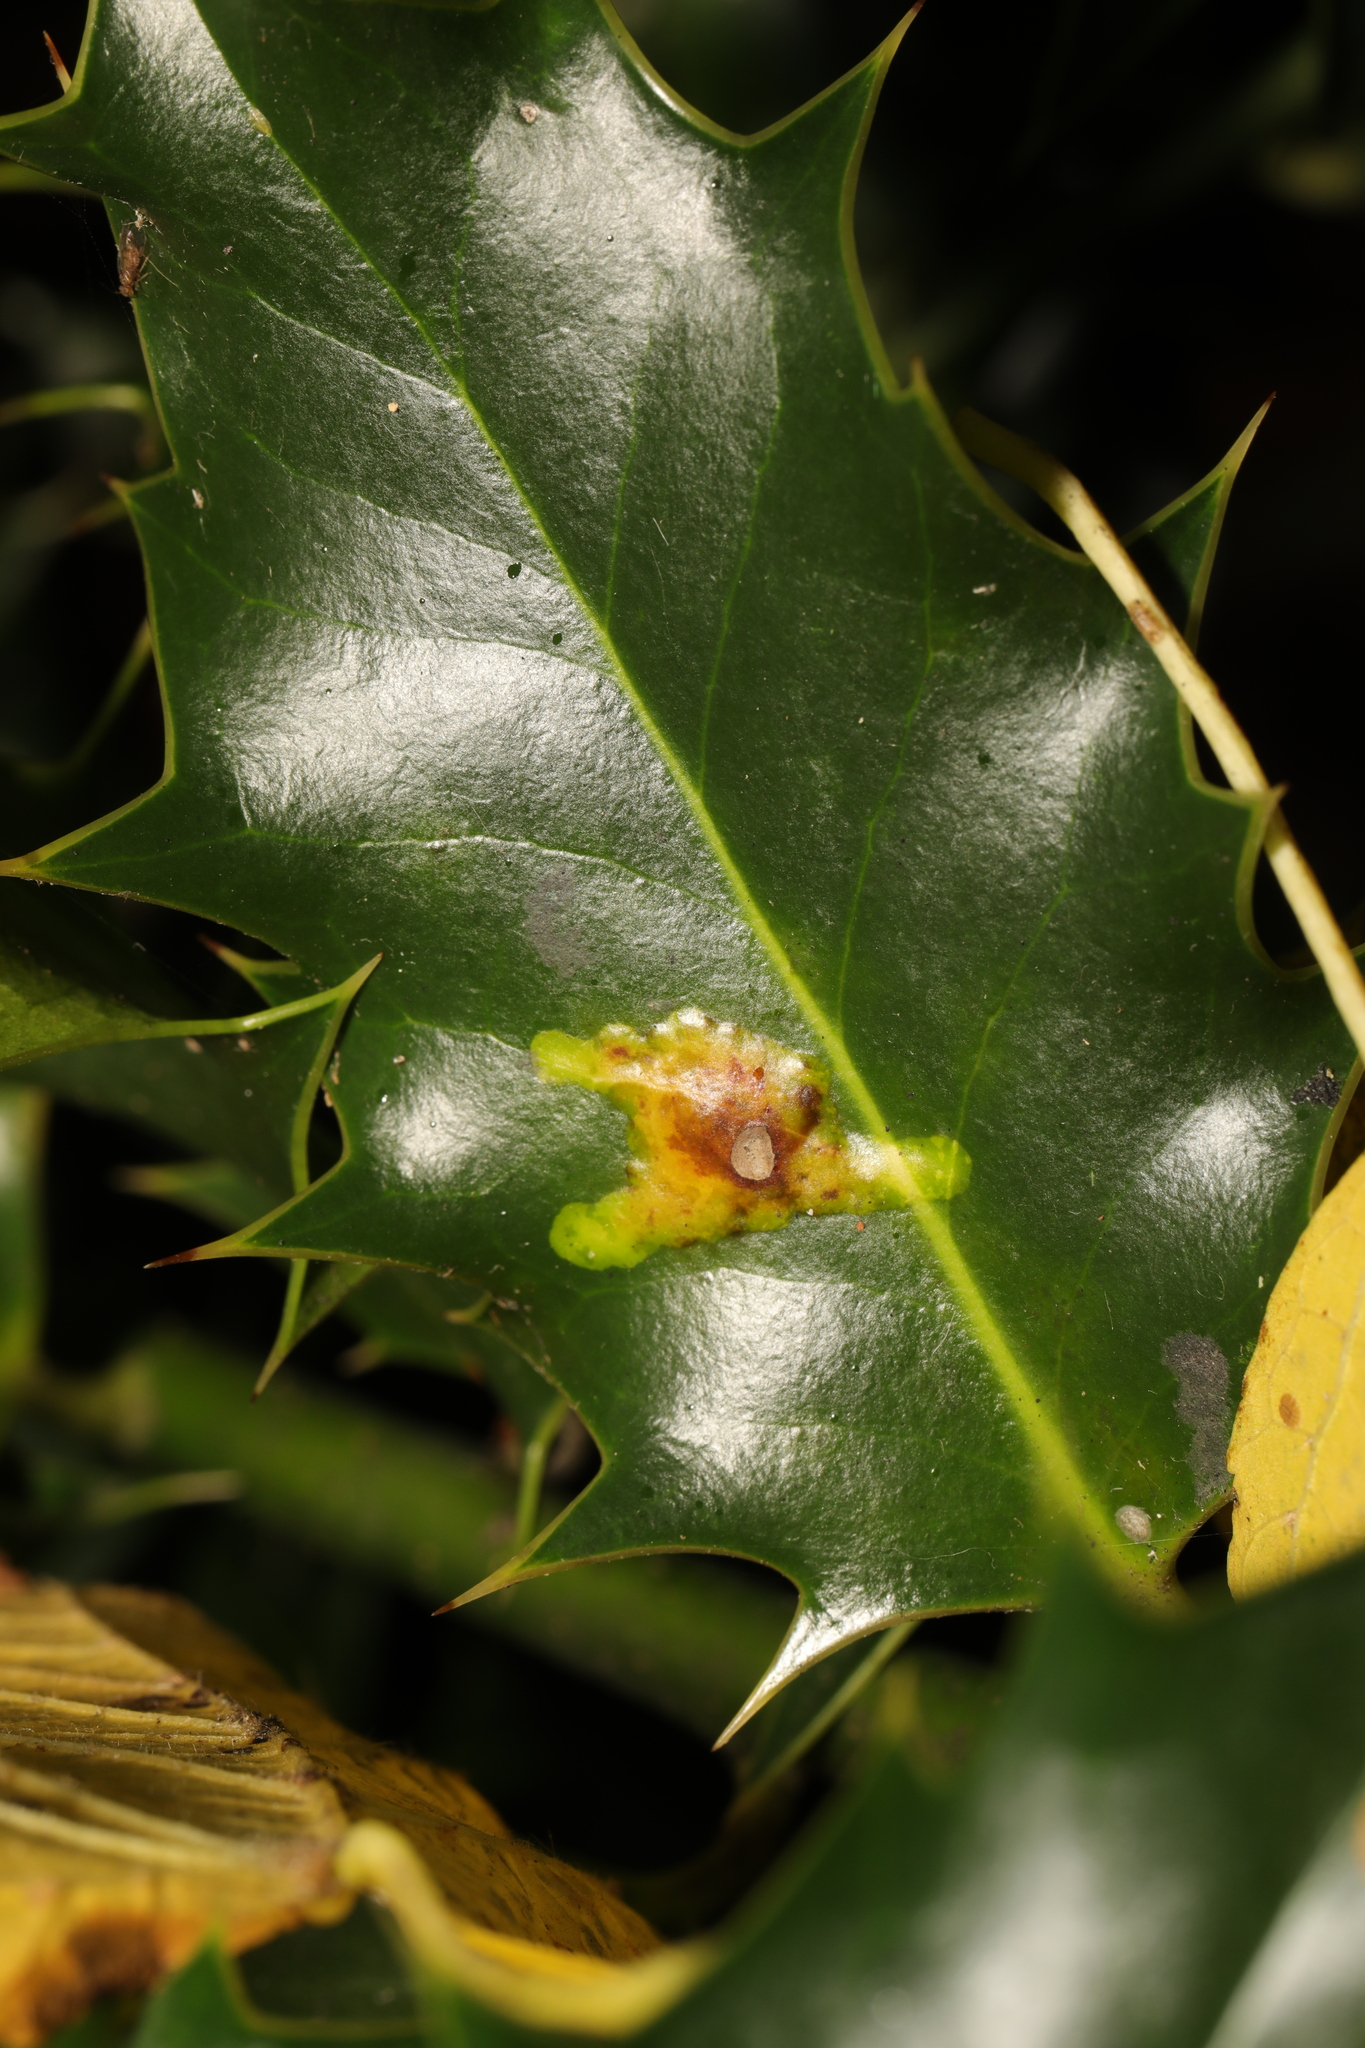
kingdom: Animalia
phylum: Arthropoda
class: Insecta
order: Diptera
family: Agromyzidae
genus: Phytomyza
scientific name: Phytomyza ilicis
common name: Holly leafminer
